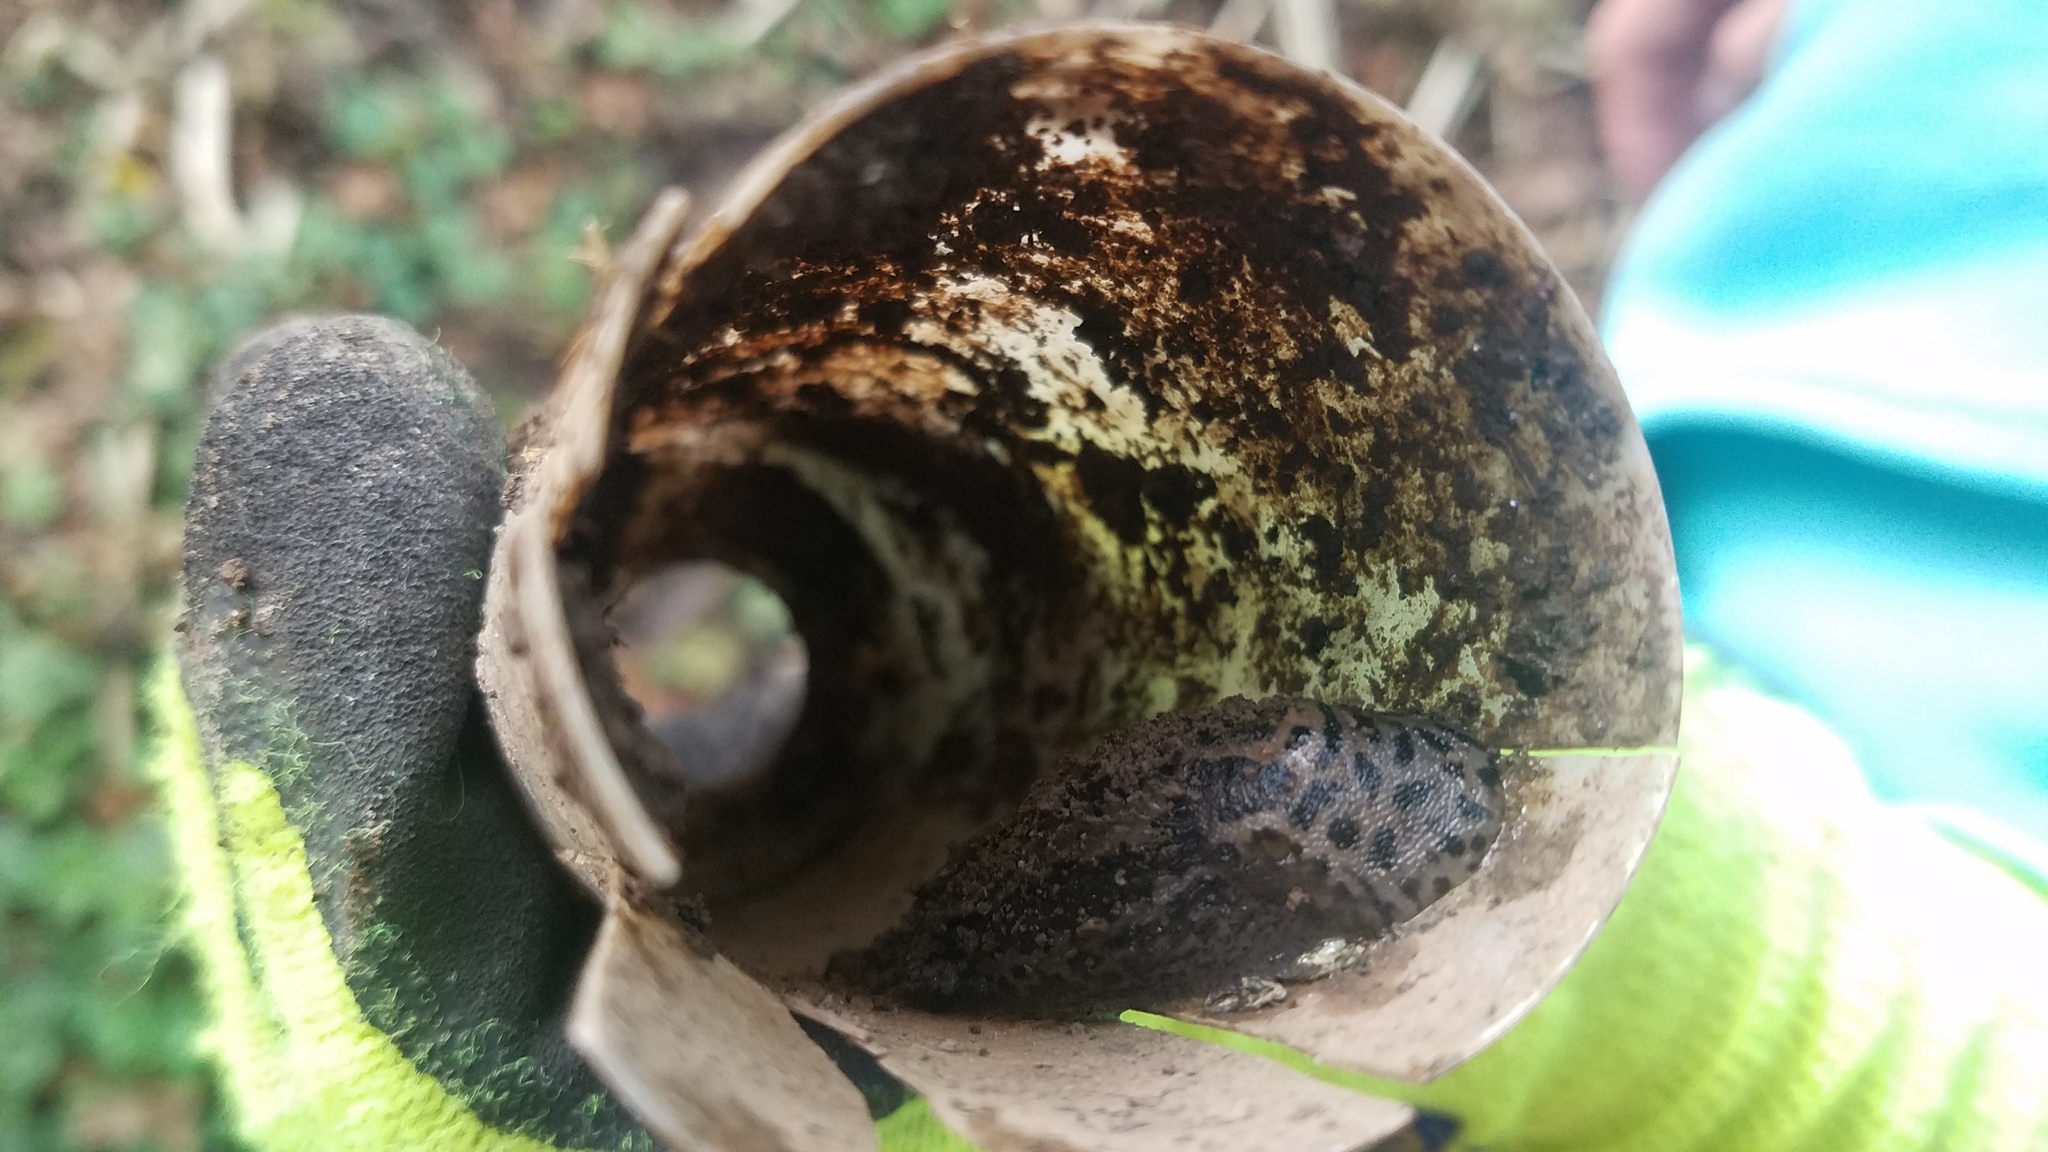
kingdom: Animalia
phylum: Mollusca
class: Gastropoda
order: Stylommatophora
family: Limacidae
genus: Limax
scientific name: Limax maximus
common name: Great grey slug
